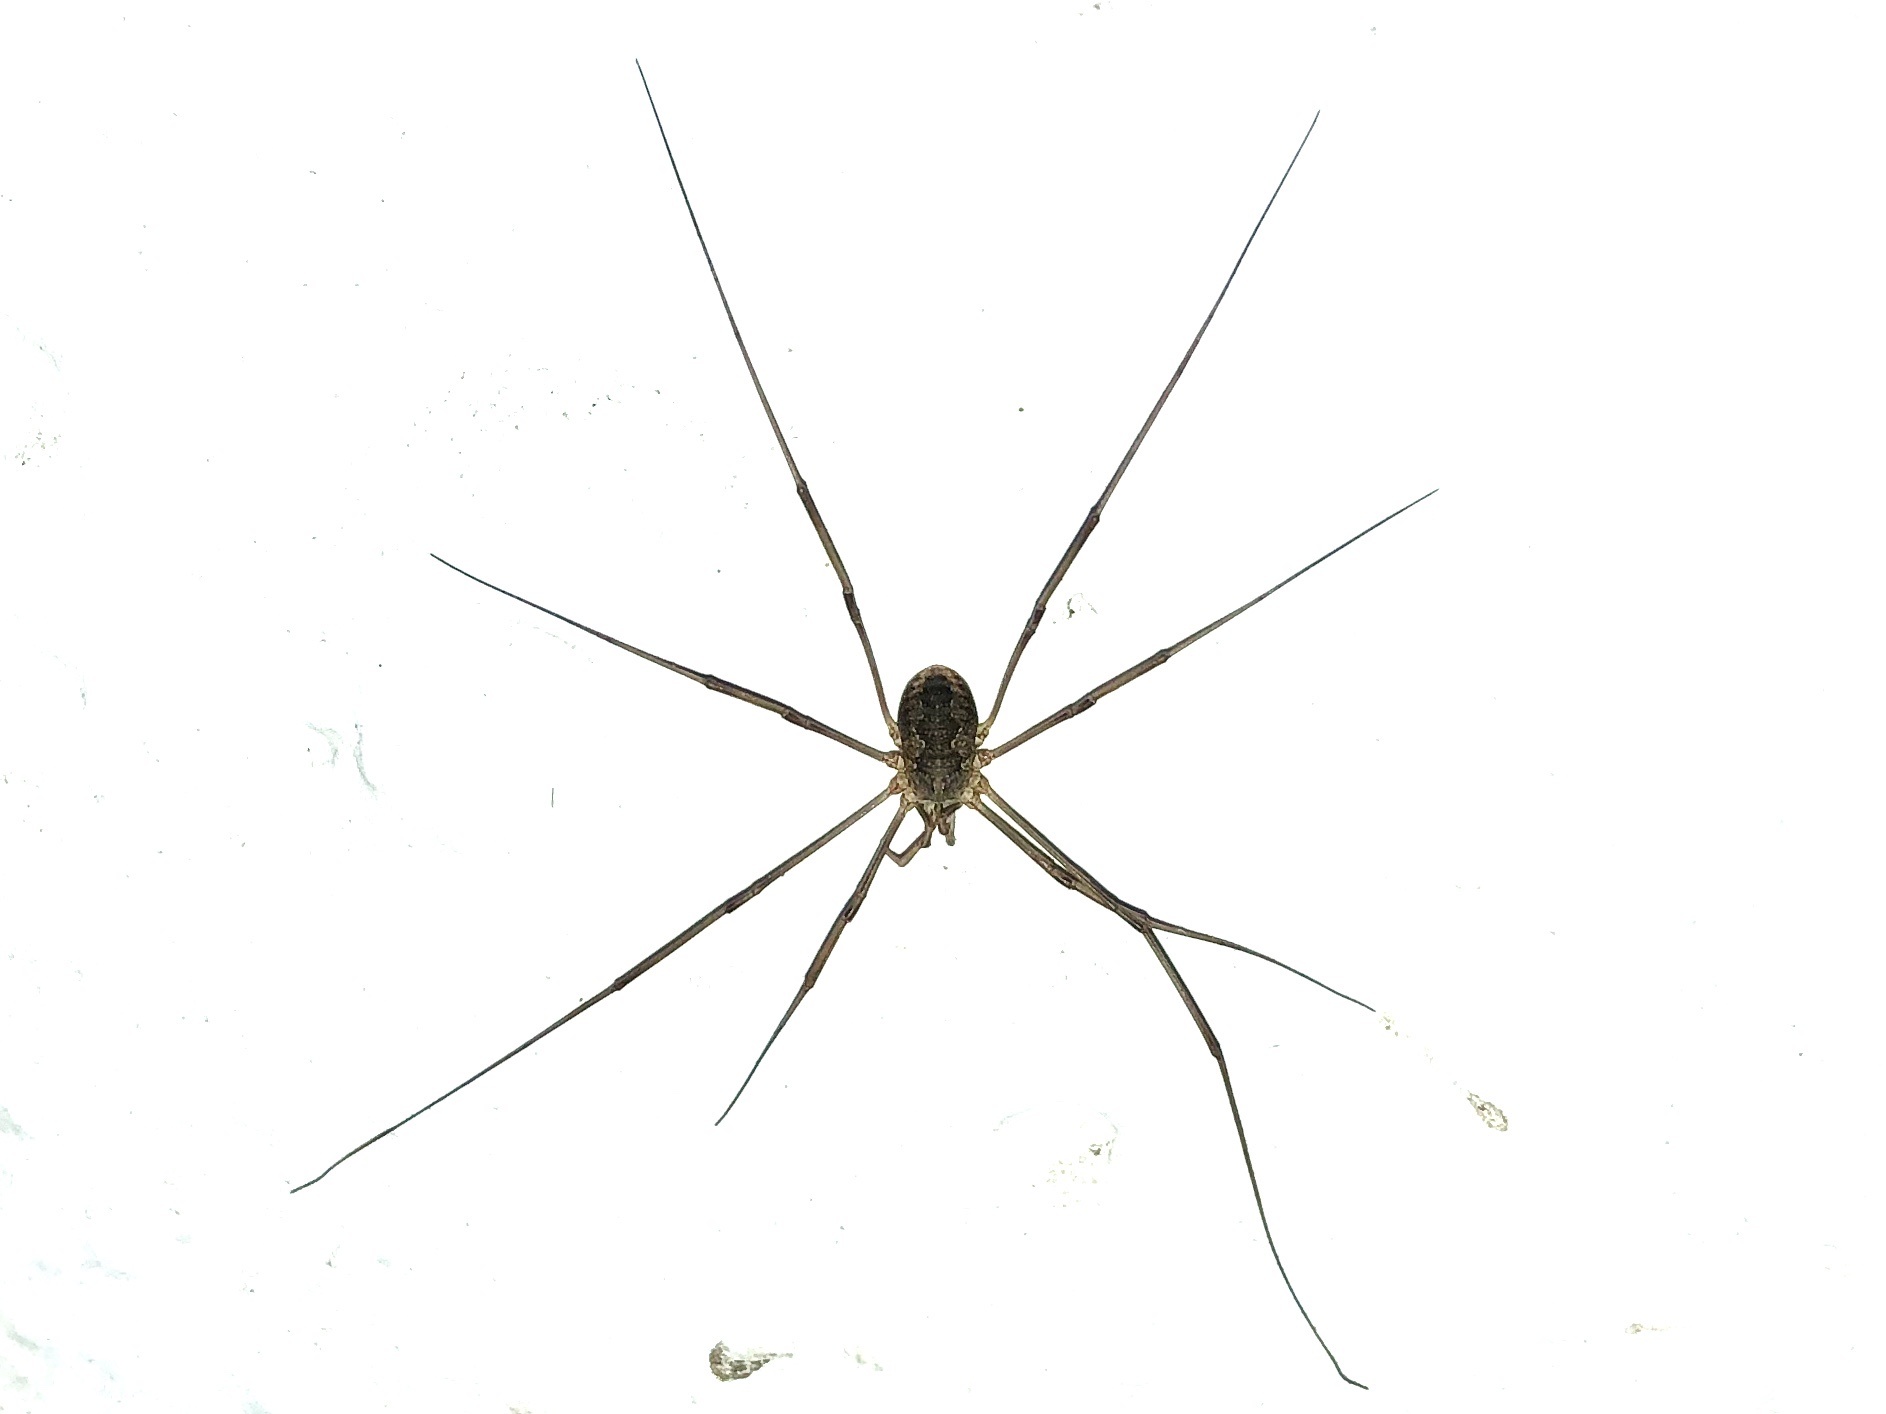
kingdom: Animalia
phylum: Arthropoda
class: Arachnida
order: Opiliones
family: Phalangiidae
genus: Phalangium
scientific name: Phalangium opilio
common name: Daddy longleg
